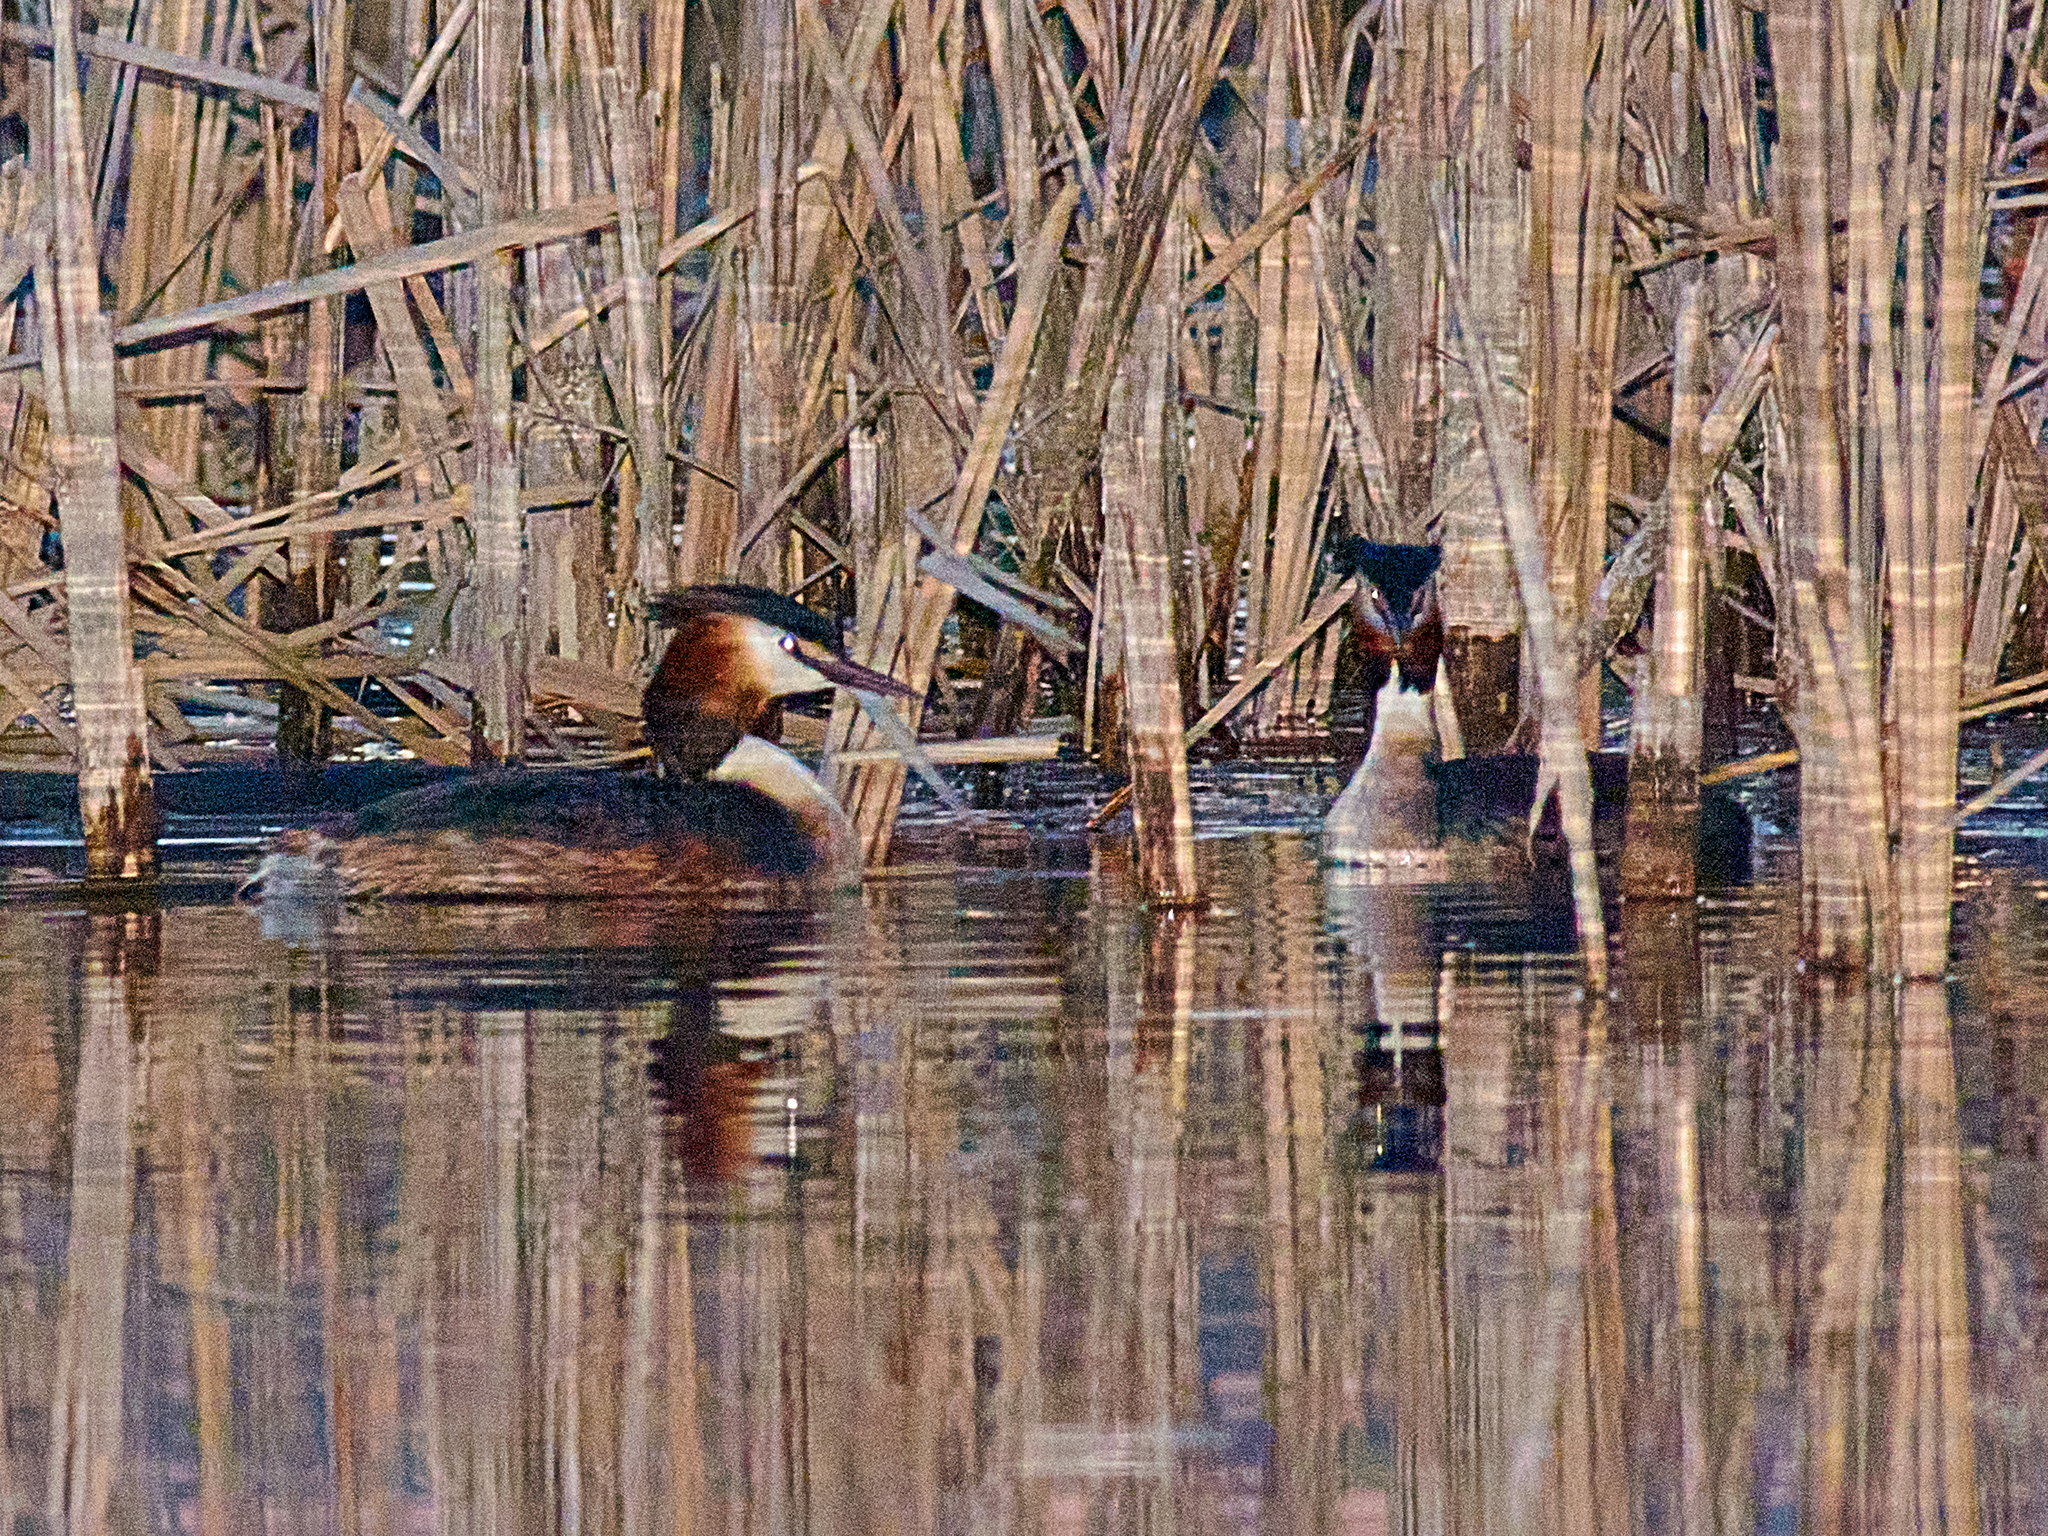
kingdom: Animalia
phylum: Chordata
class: Aves
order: Podicipediformes
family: Podicipedidae
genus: Podiceps
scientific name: Podiceps cristatus
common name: Great crested grebe
